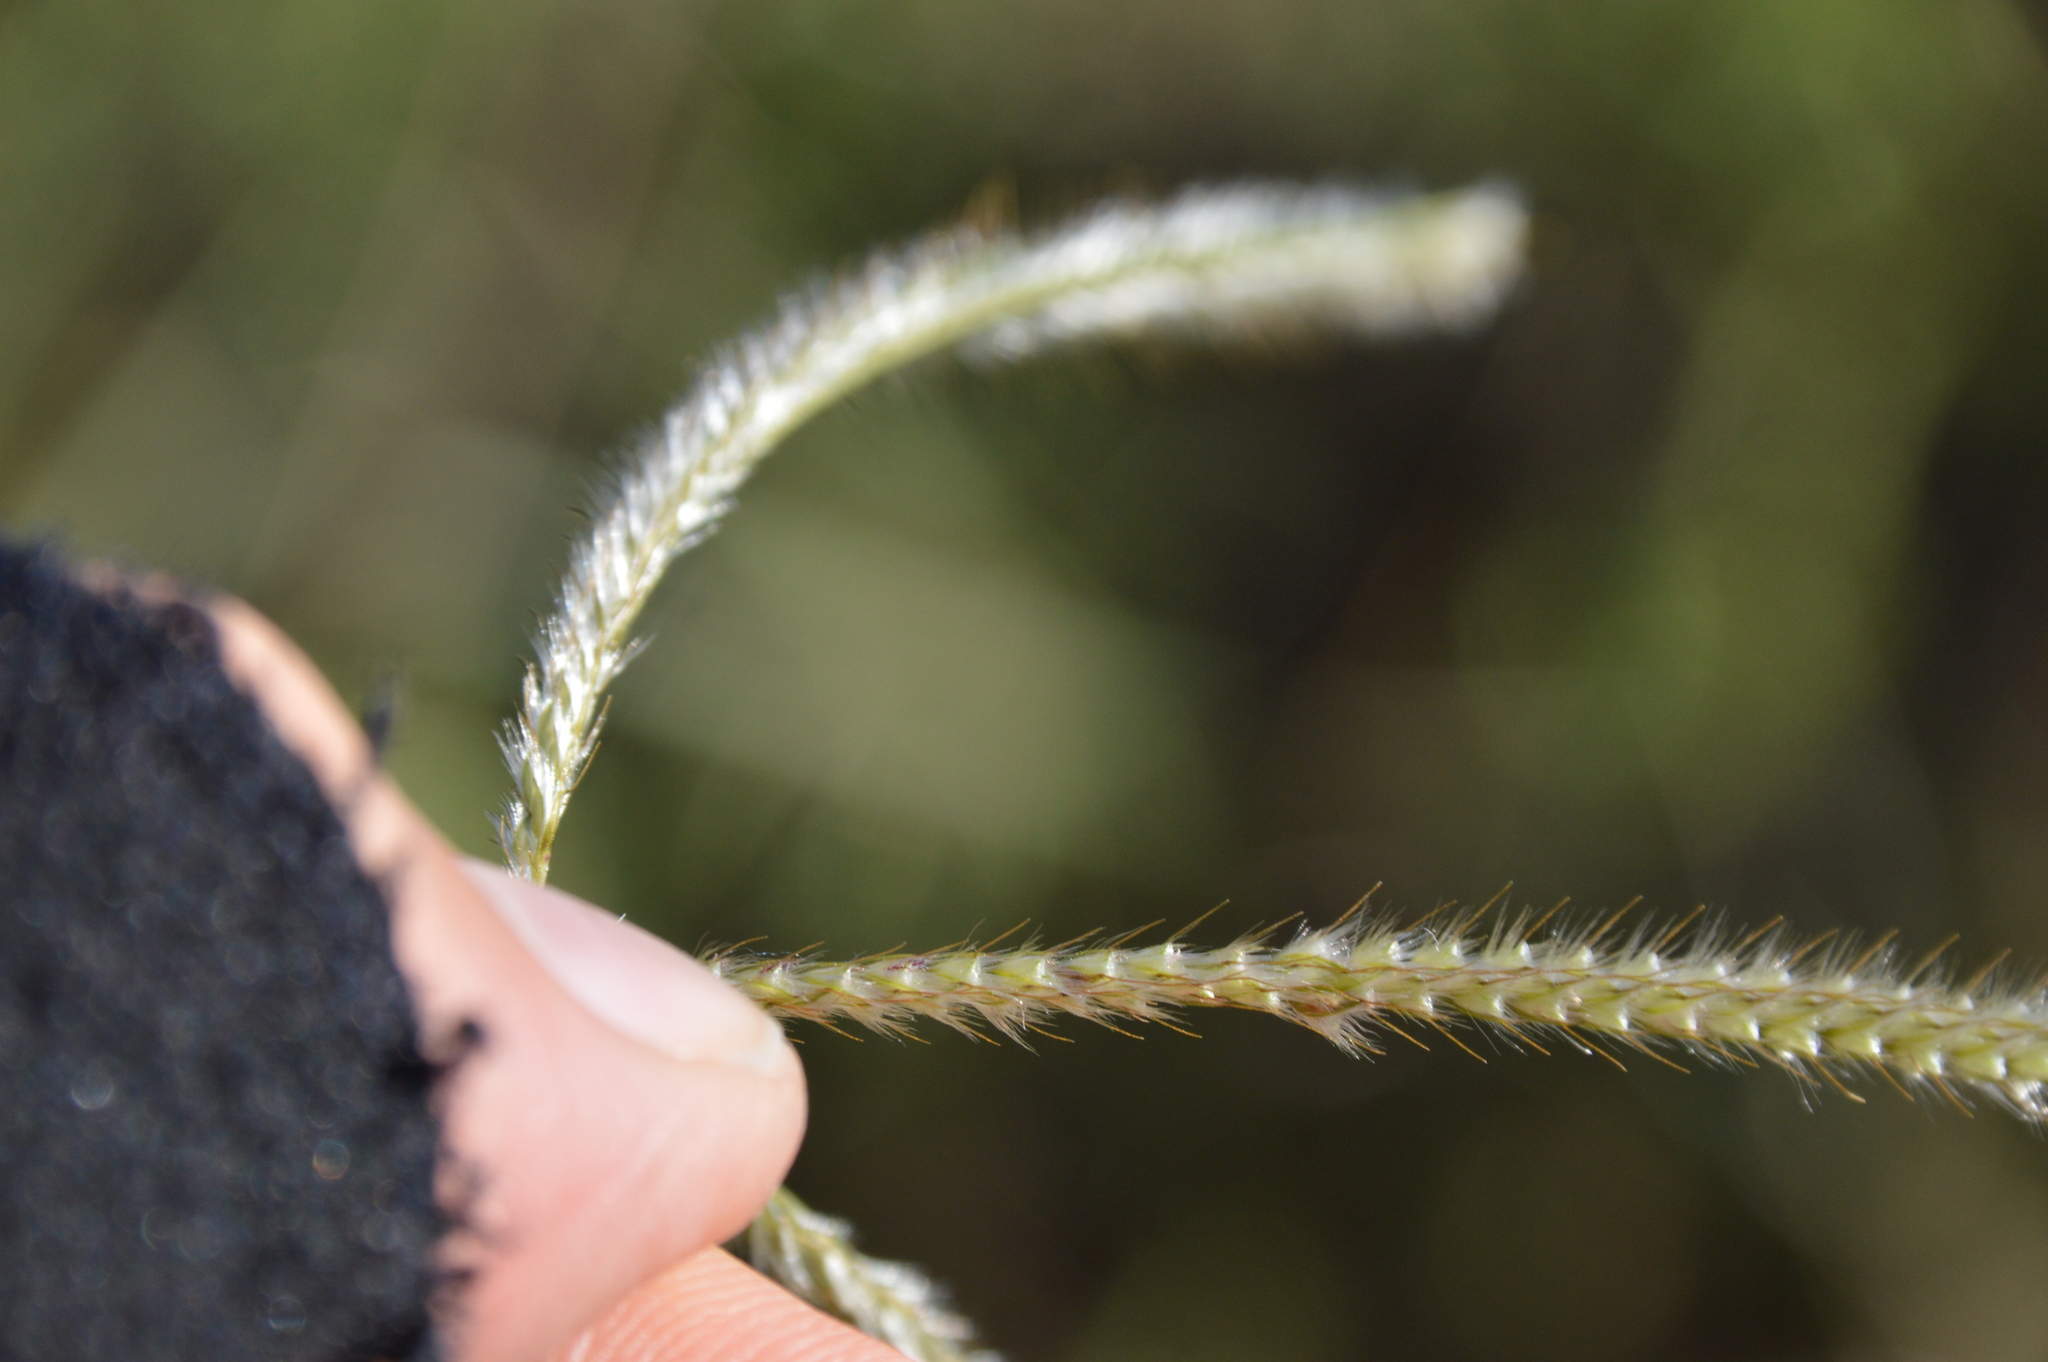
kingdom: Plantae
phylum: Tracheophyta
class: Liliopsida
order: Poales
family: Poaceae
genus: Stapfochloa
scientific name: Stapfochloa canterae
